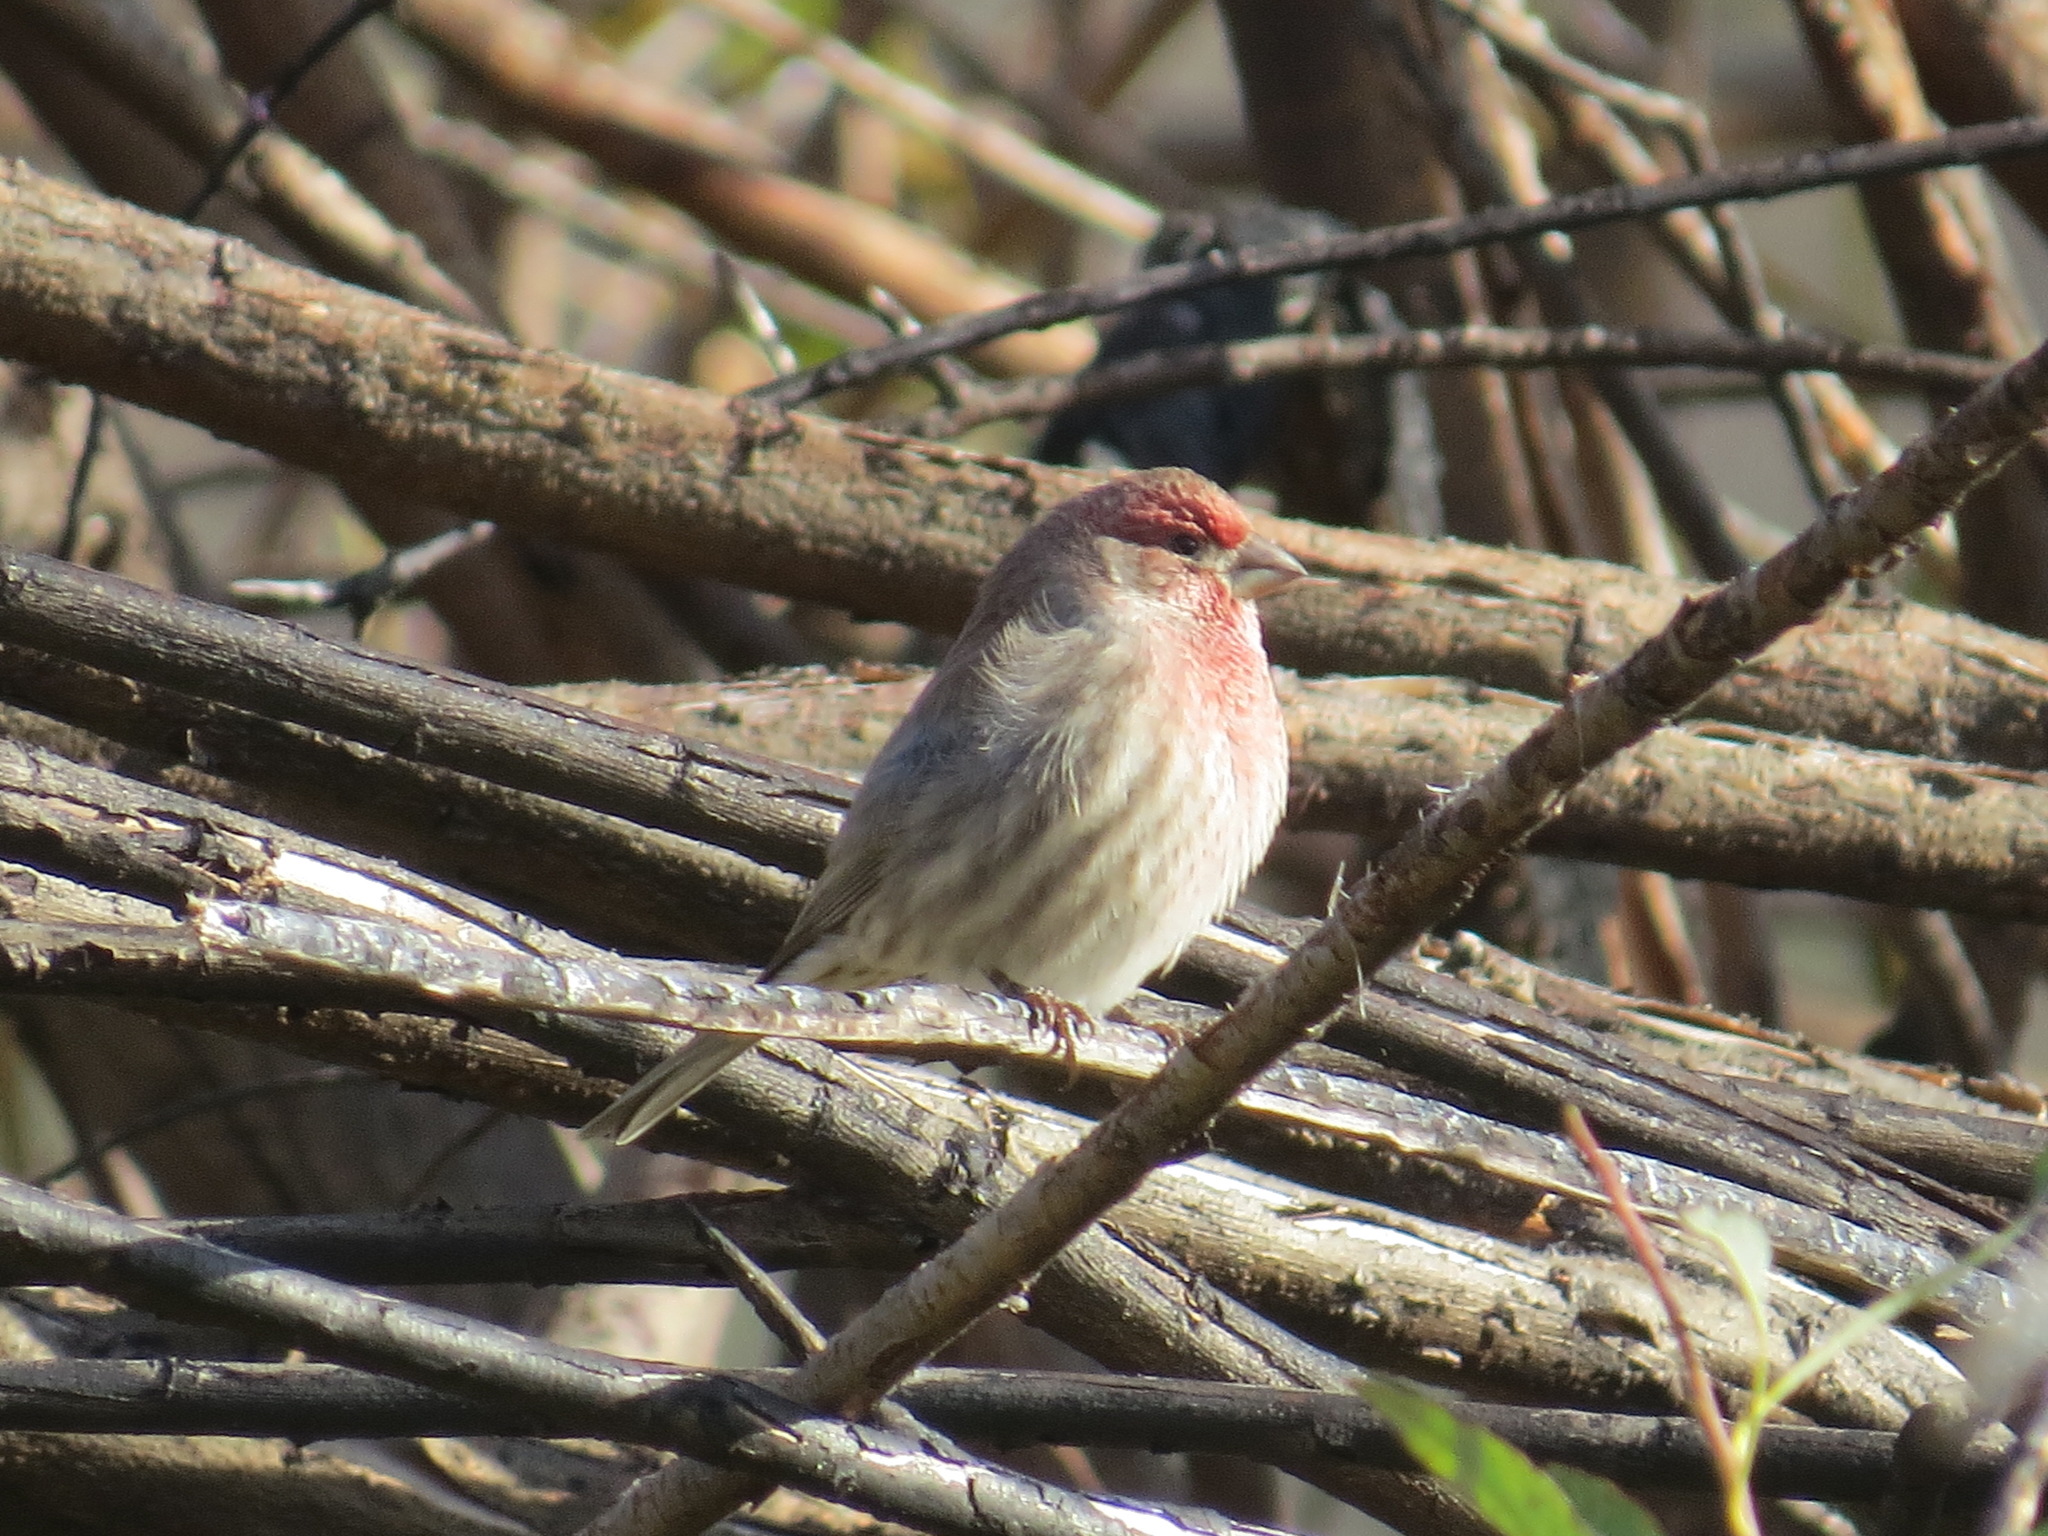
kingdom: Animalia
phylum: Chordata
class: Aves
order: Passeriformes
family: Fringillidae
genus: Haemorhous
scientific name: Haemorhous mexicanus
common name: House finch
